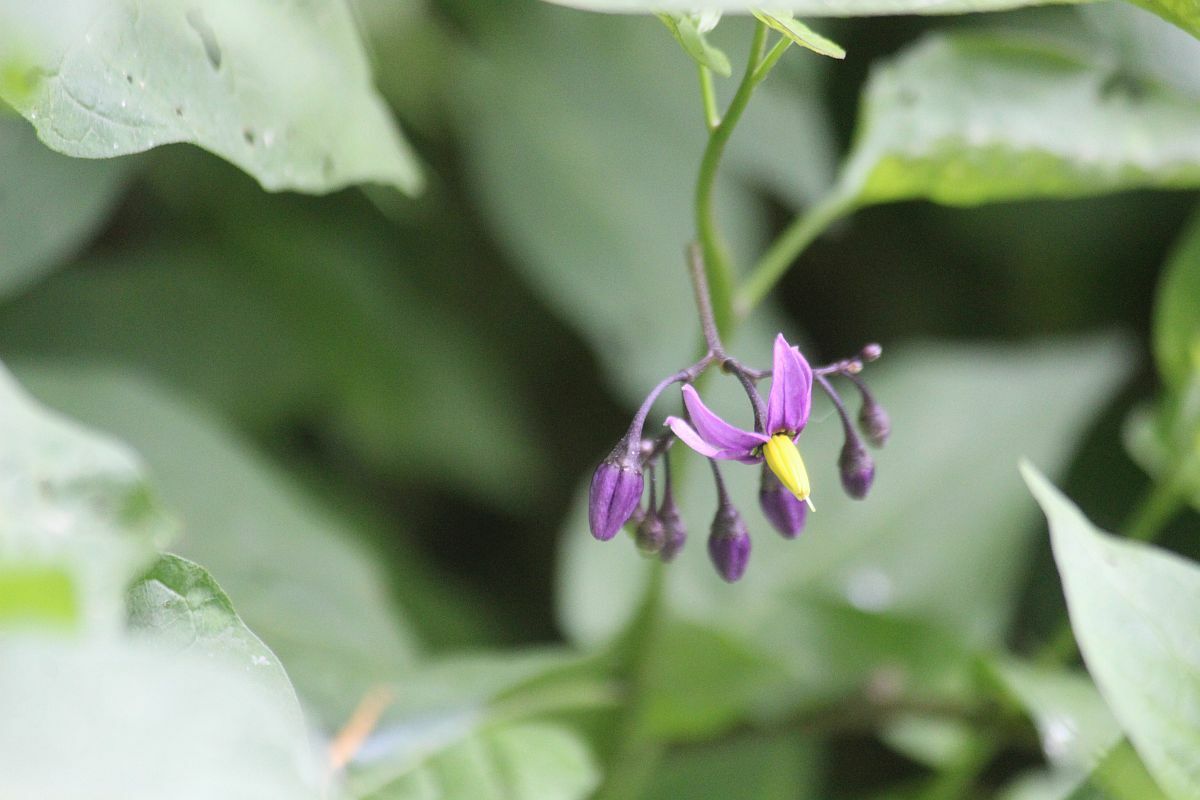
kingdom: Plantae
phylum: Tracheophyta
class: Magnoliopsida
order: Solanales
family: Solanaceae
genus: Solanum
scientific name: Solanum dulcamara
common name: Climbing nightshade
